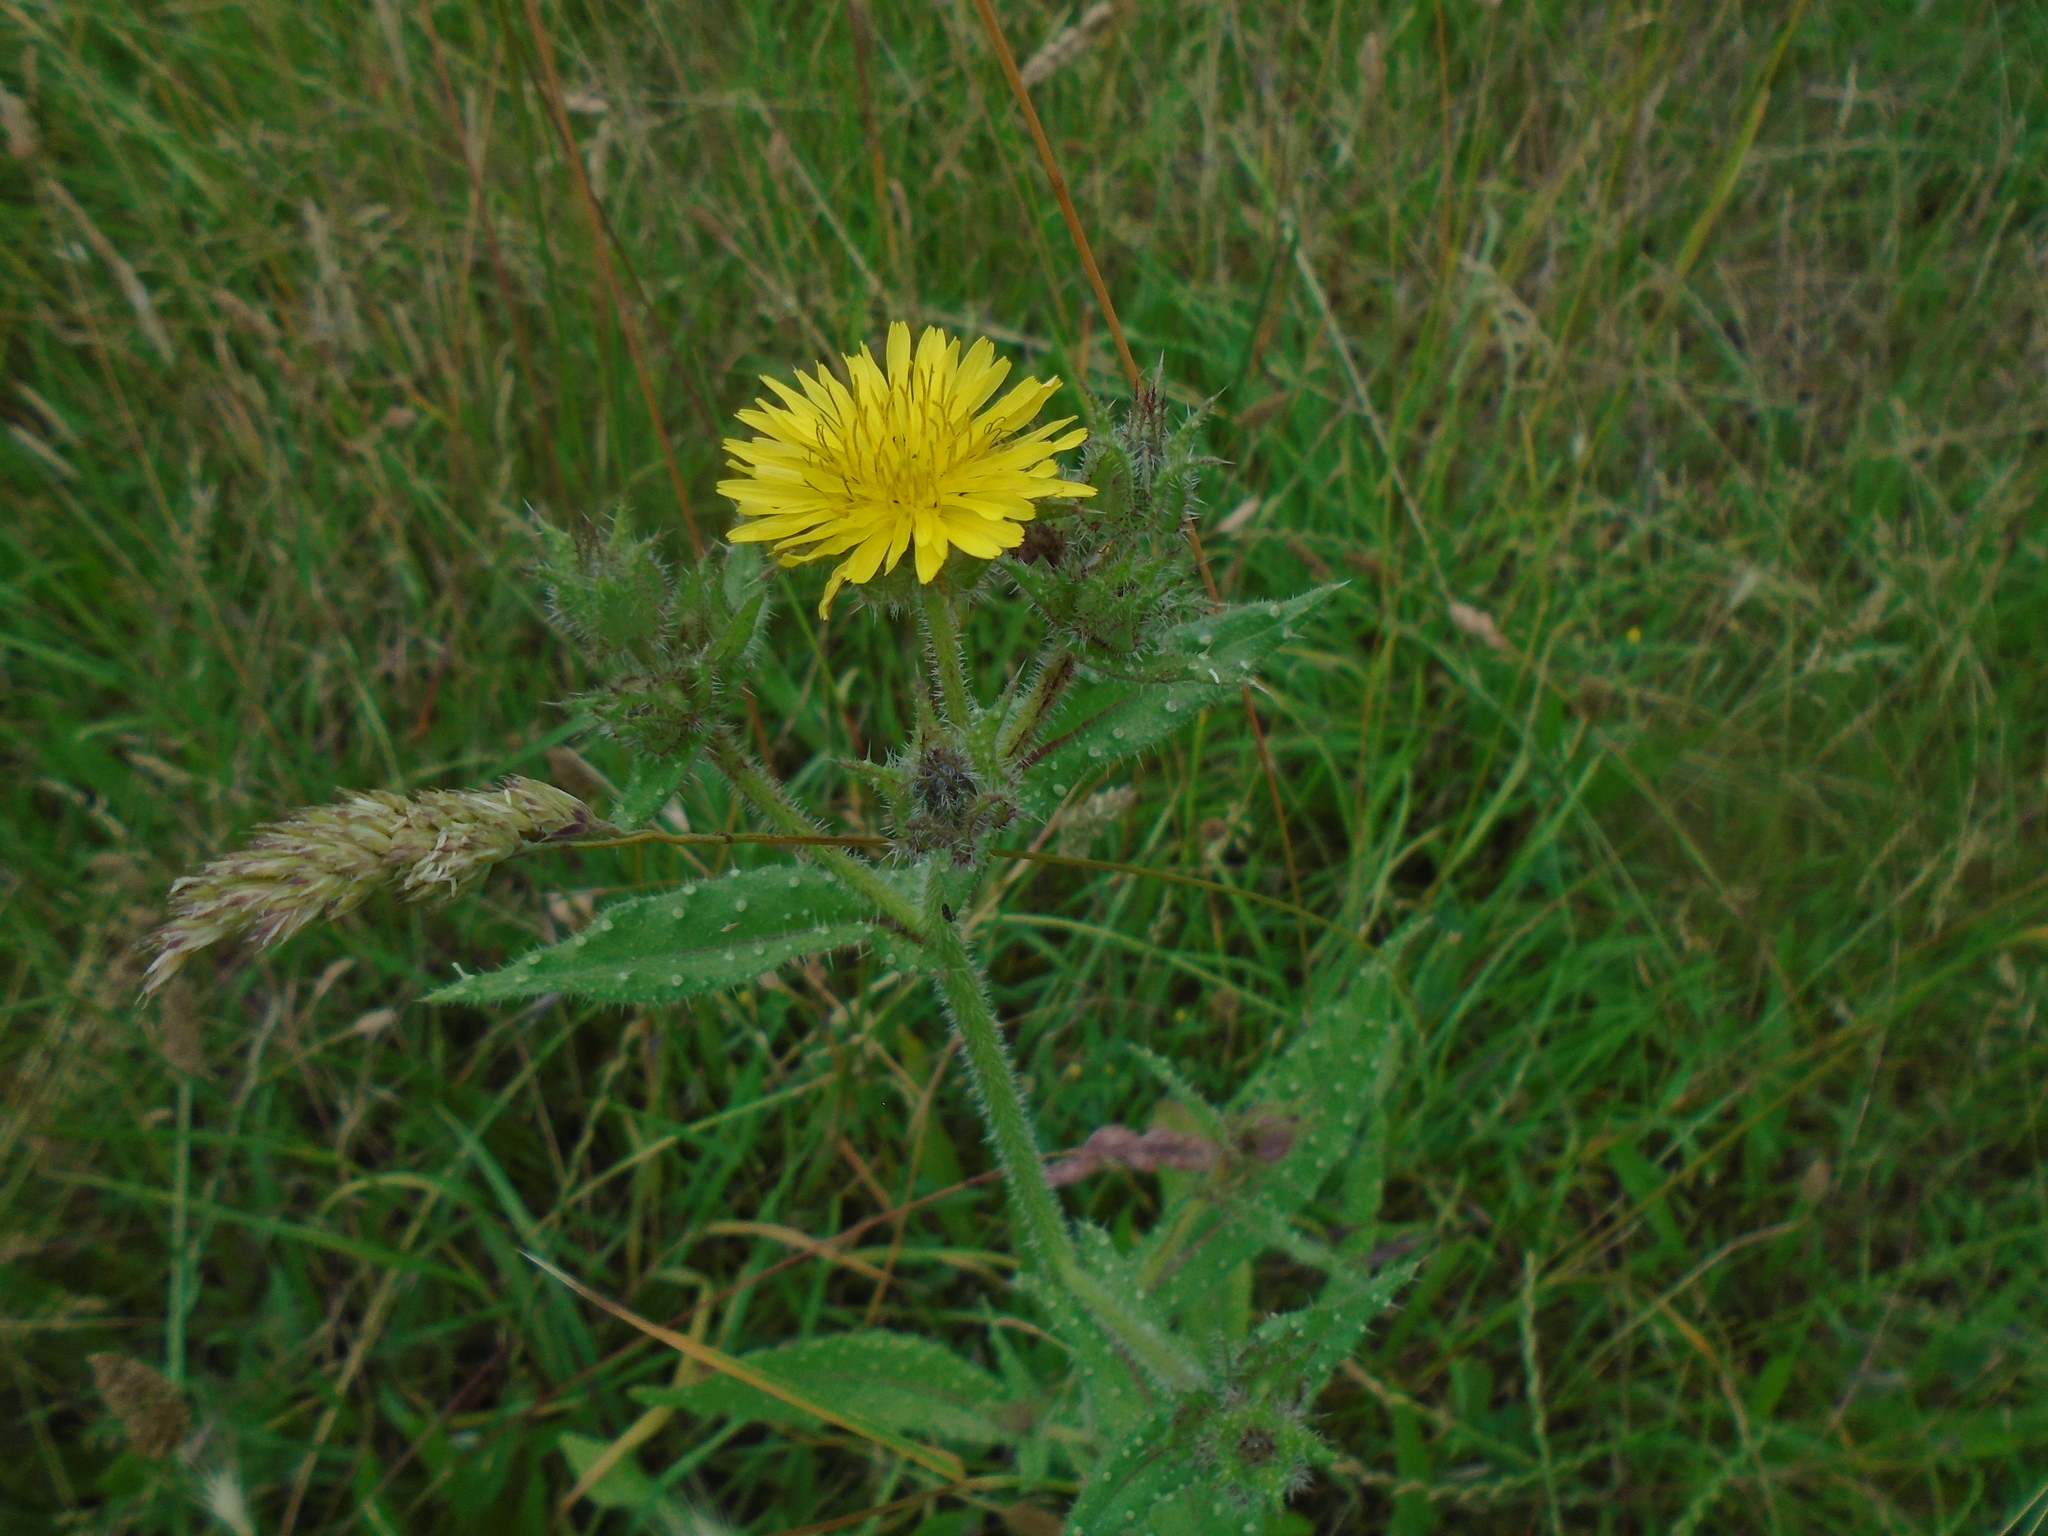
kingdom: Plantae
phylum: Tracheophyta
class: Magnoliopsida
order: Asterales
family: Asteraceae
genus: Helminthotheca
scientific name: Helminthotheca echioides
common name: Ox-tongue
